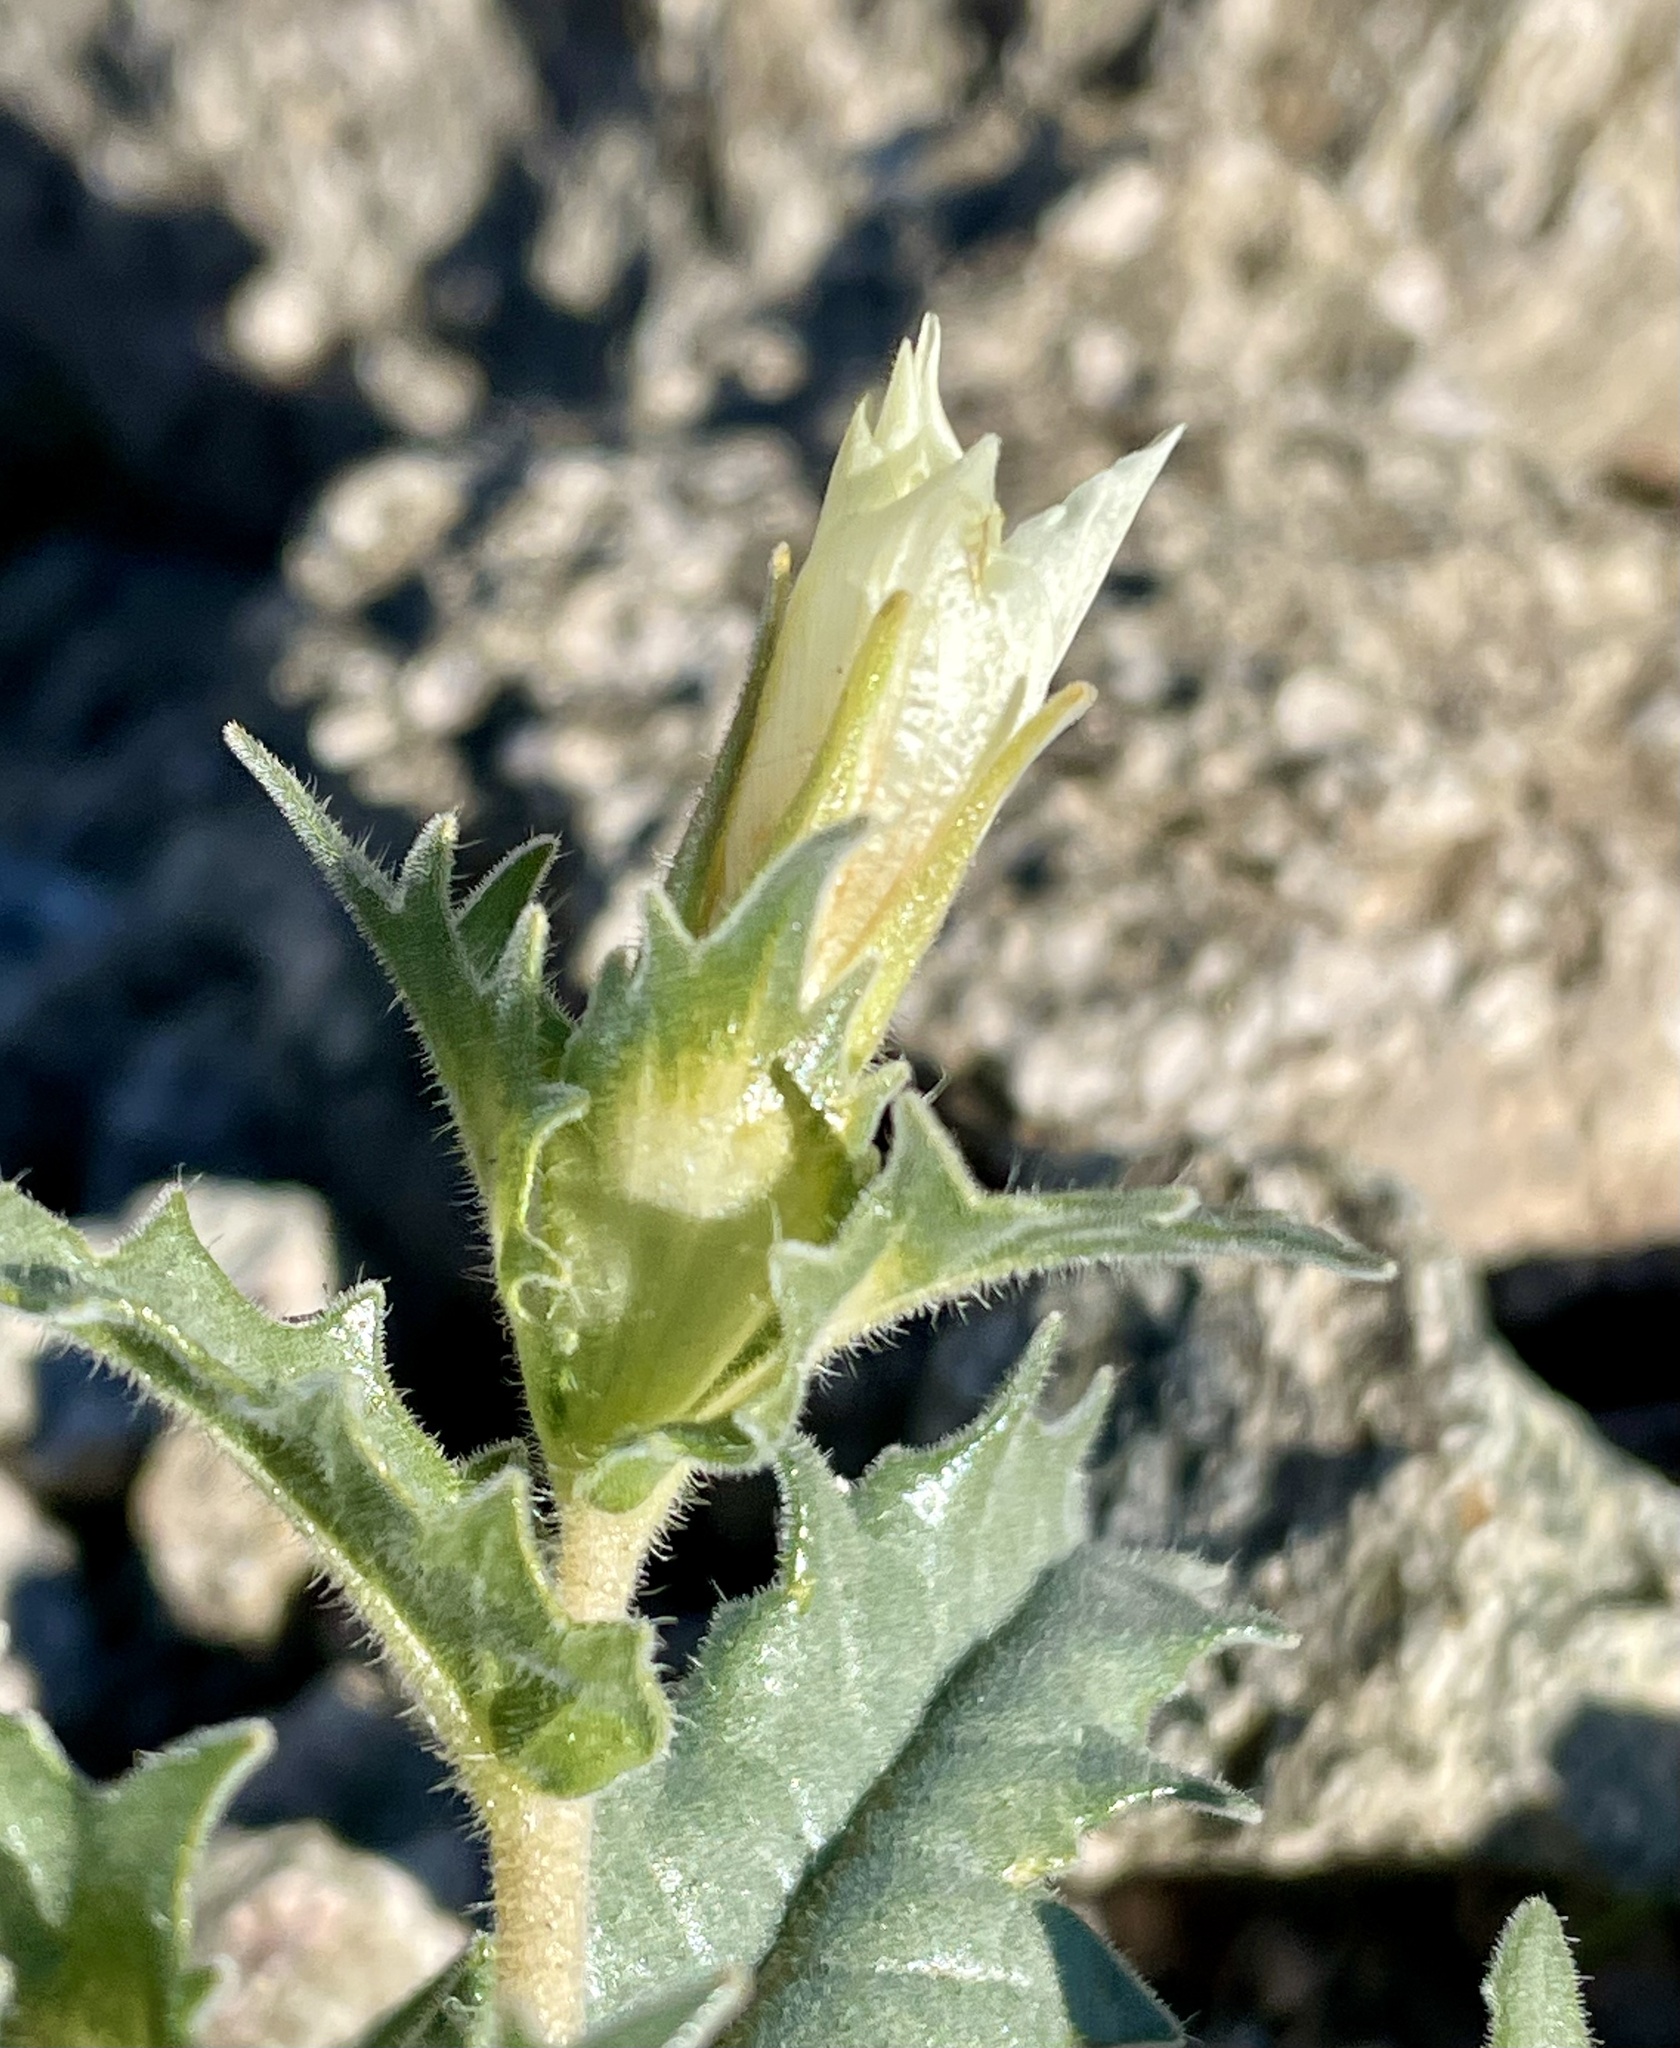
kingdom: Plantae
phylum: Tracheophyta
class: Magnoliopsida
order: Cornales
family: Loasaceae
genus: Mentzelia
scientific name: Mentzelia involucrata
